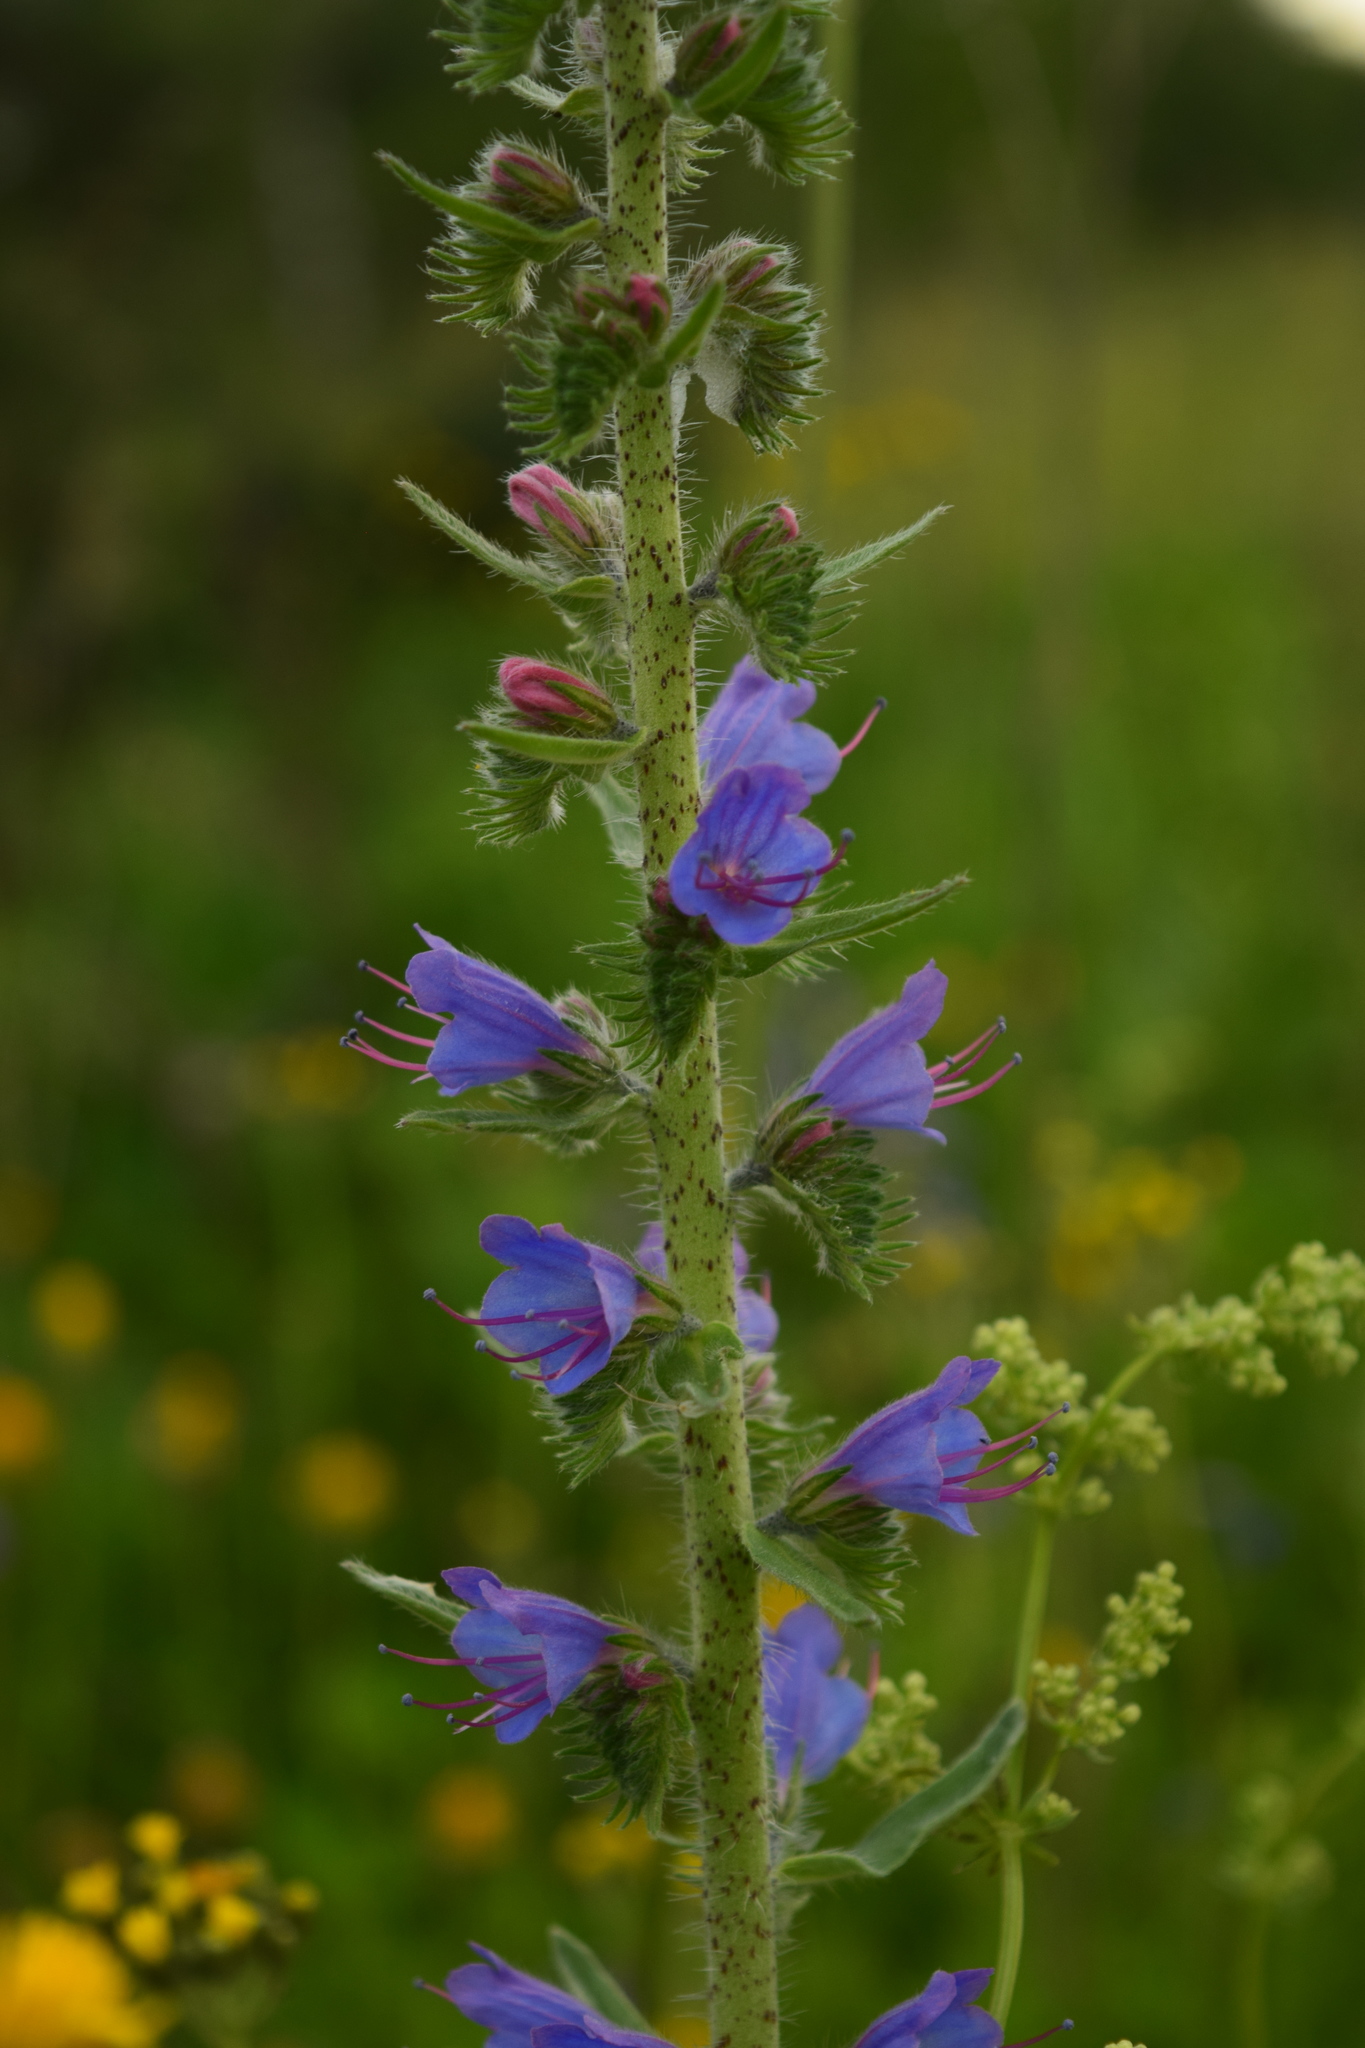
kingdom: Plantae
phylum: Tracheophyta
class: Magnoliopsida
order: Boraginales
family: Boraginaceae
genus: Echium
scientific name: Echium vulgare
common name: Common viper's bugloss
